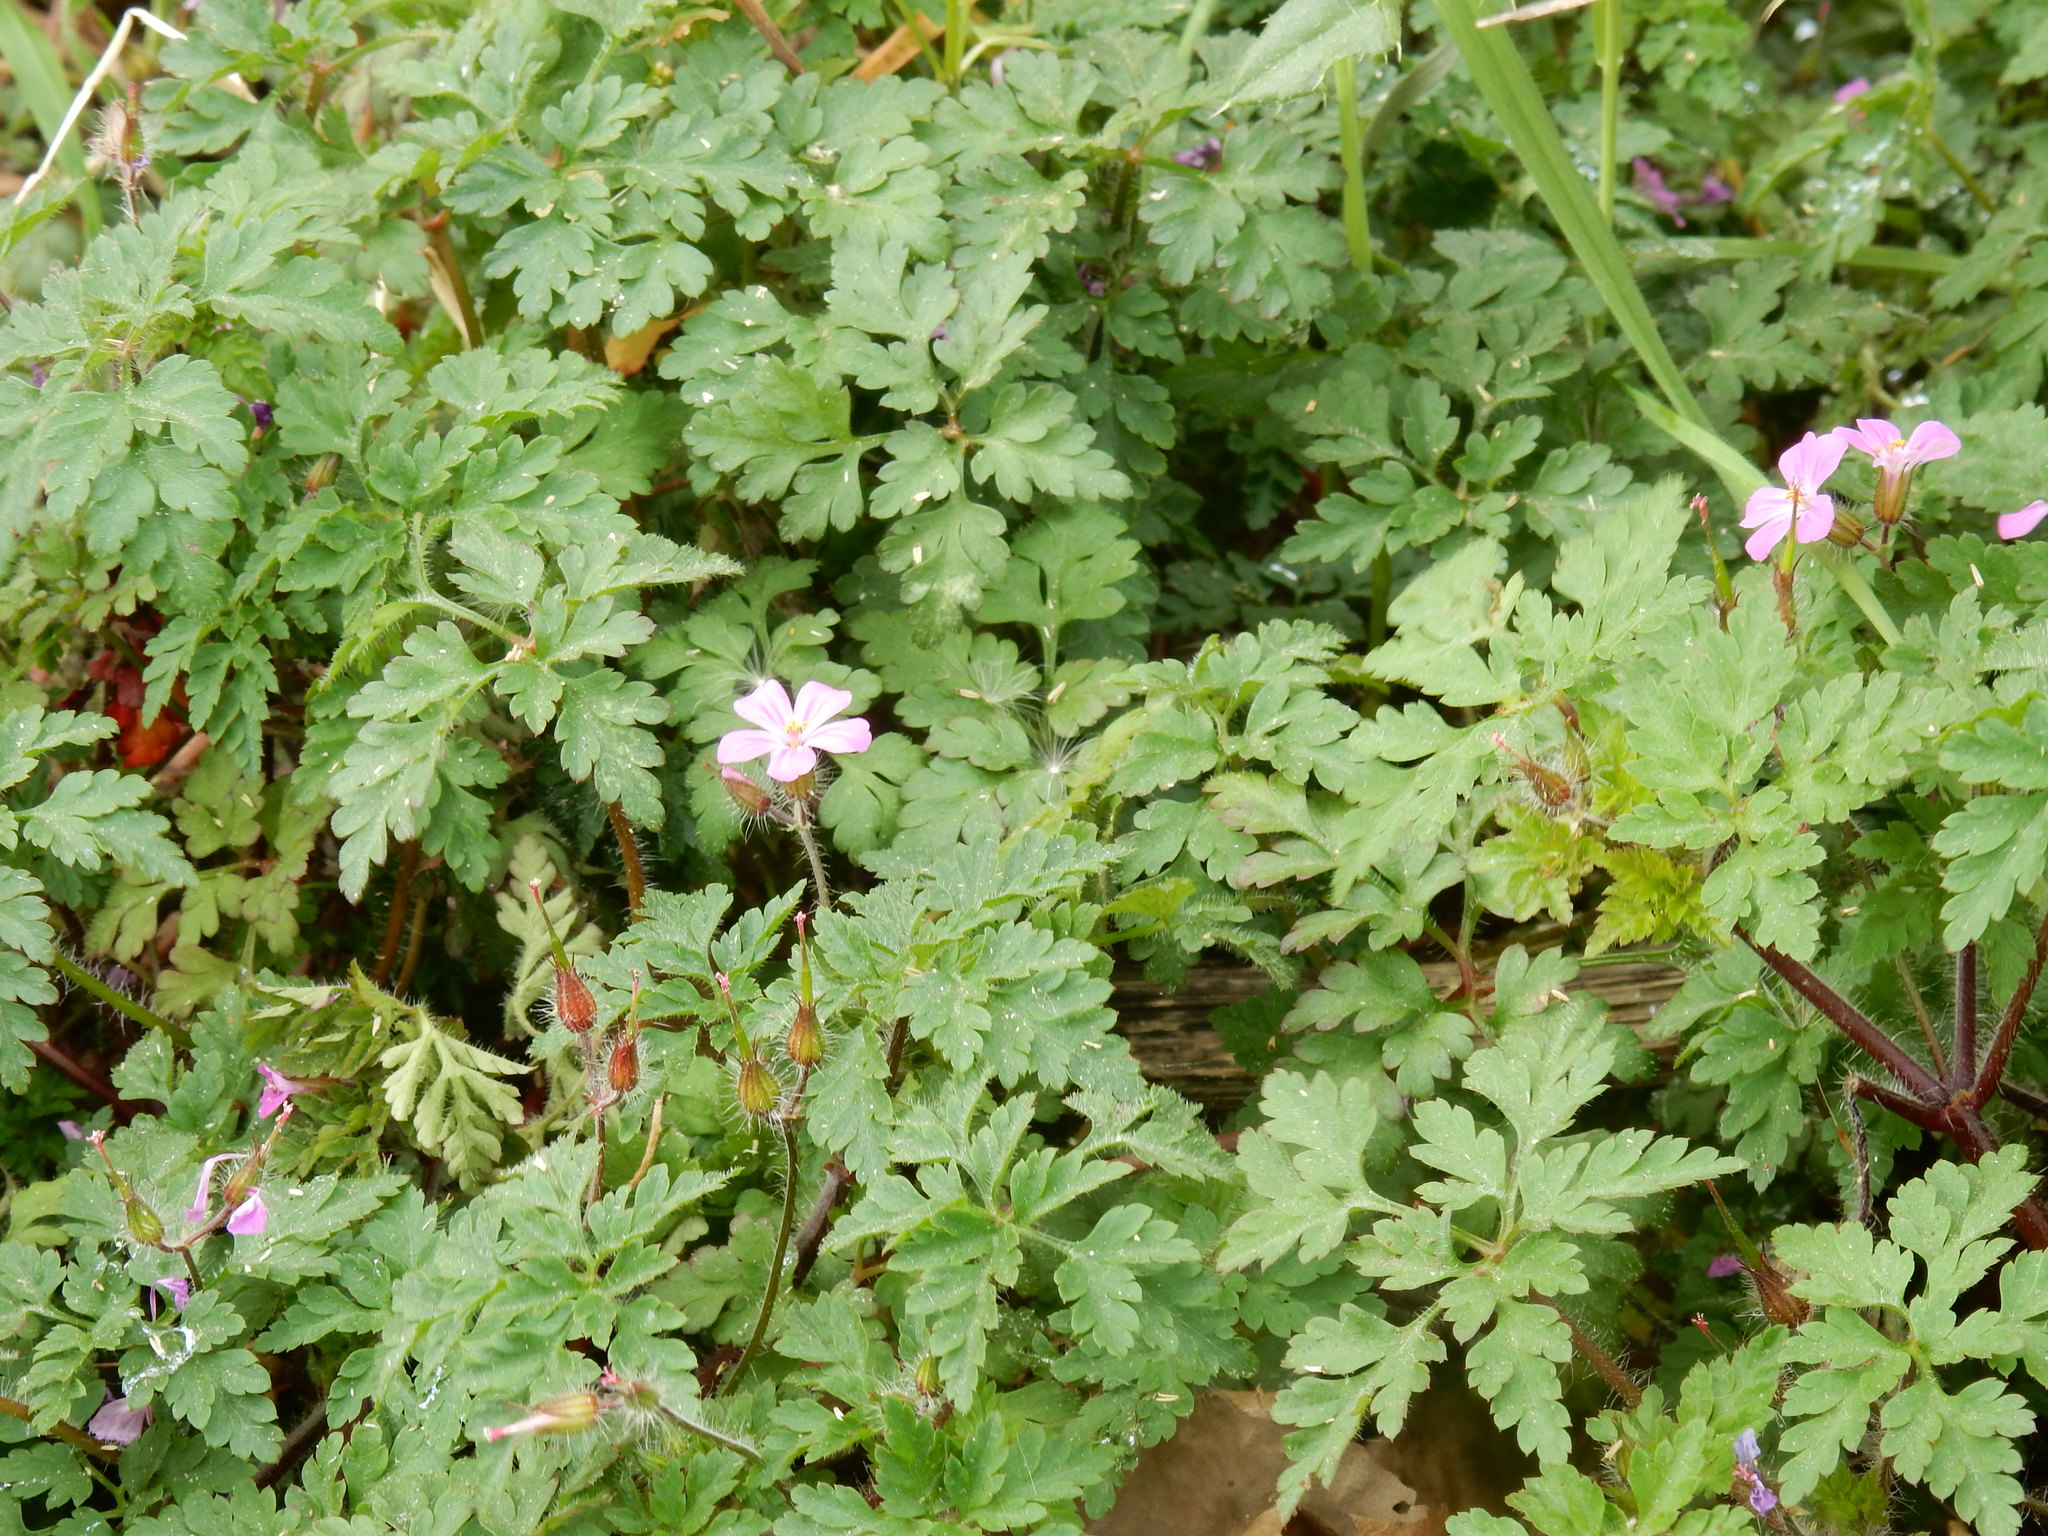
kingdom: Plantae
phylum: Tracheophyta
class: Magnoliopsida
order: Geraniales
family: Geraniaceae
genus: Geranium
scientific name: Geranium robertianum
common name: Herb-robert
